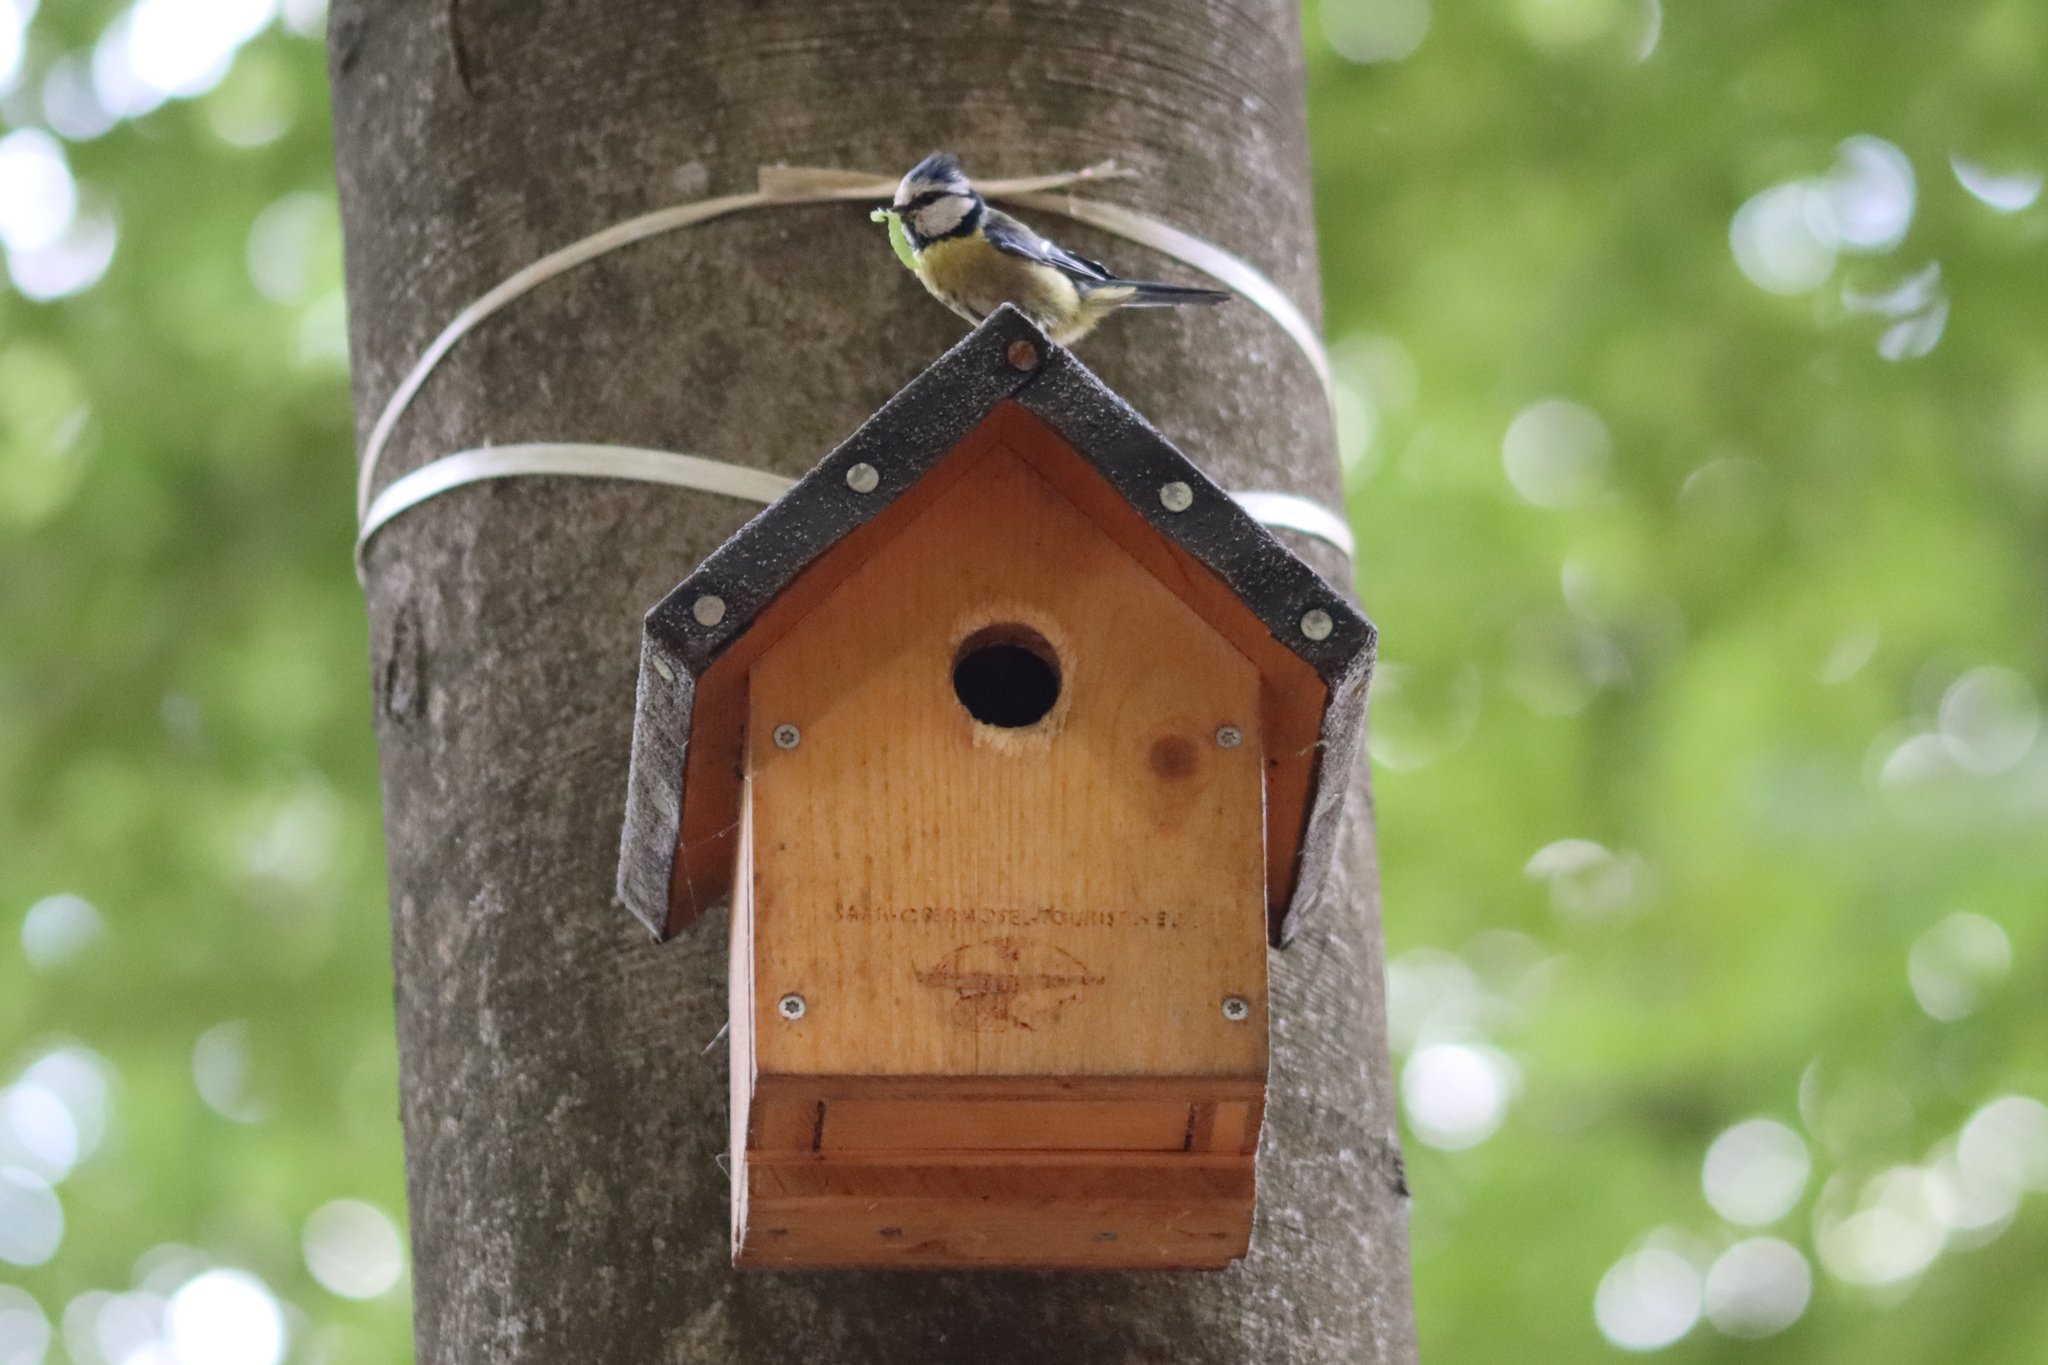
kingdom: Animalia
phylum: Chordata
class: Aves
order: Passeriformes
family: Paridae
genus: Cyanistes
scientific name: Cyanistes caeruleus
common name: Eurasian blue tit
